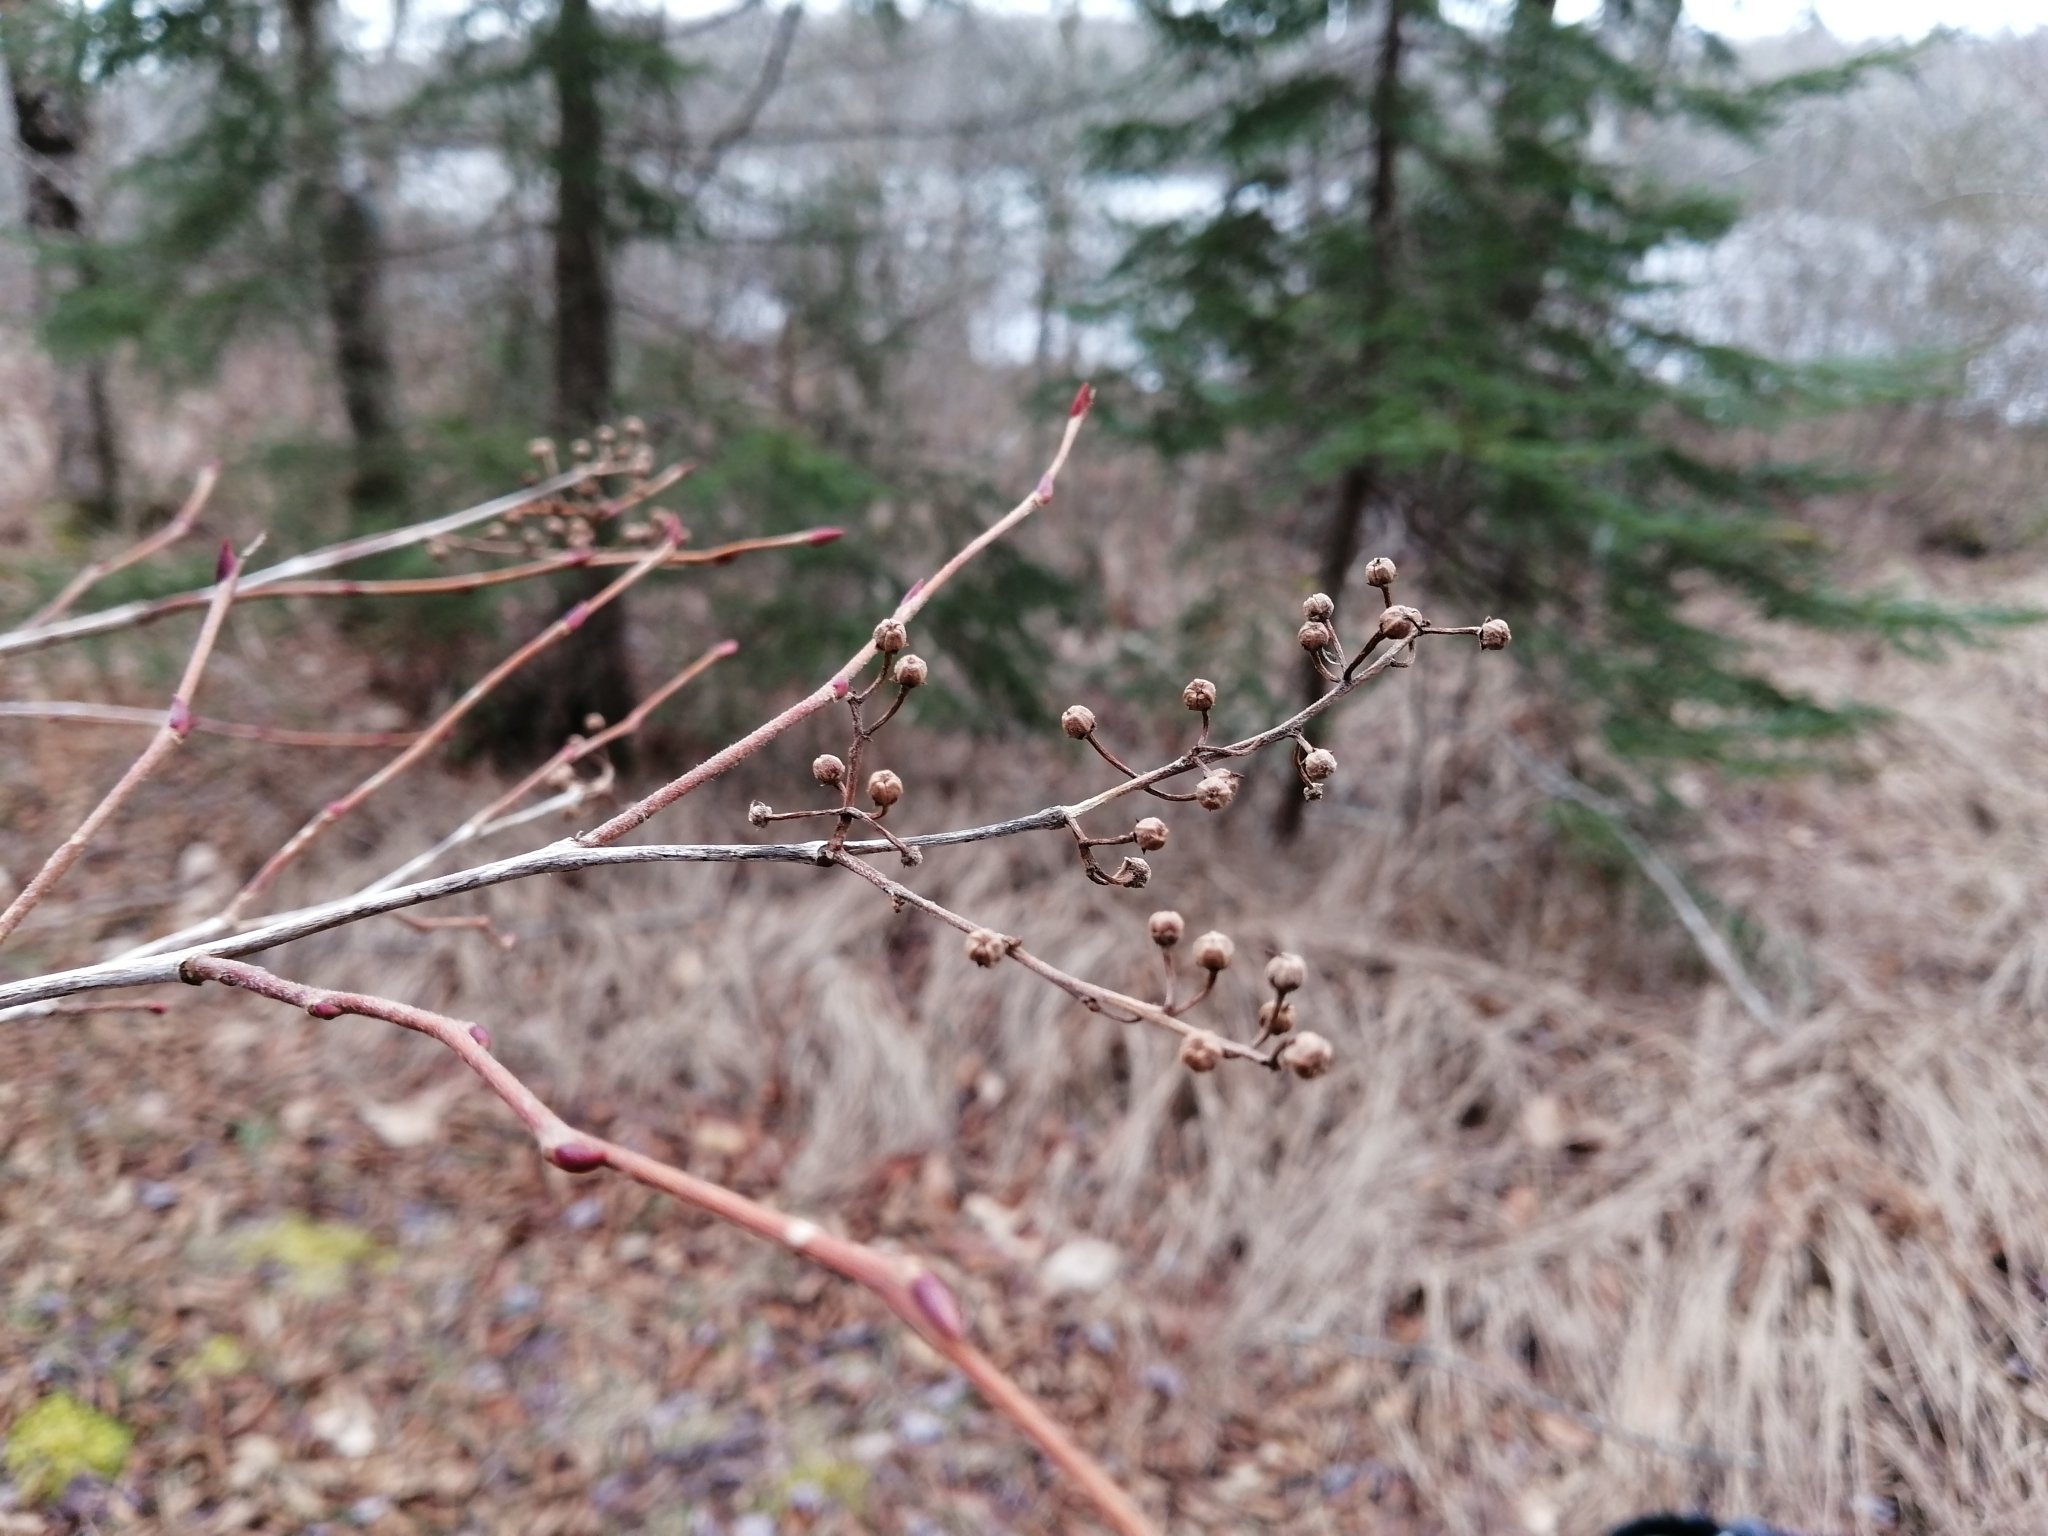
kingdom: Plantae
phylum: Tracheophyta
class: Magnoliopsida
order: Ericales
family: Ericaceae
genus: Lyonia
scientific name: Lyonia ligustrina
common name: Maleberry
